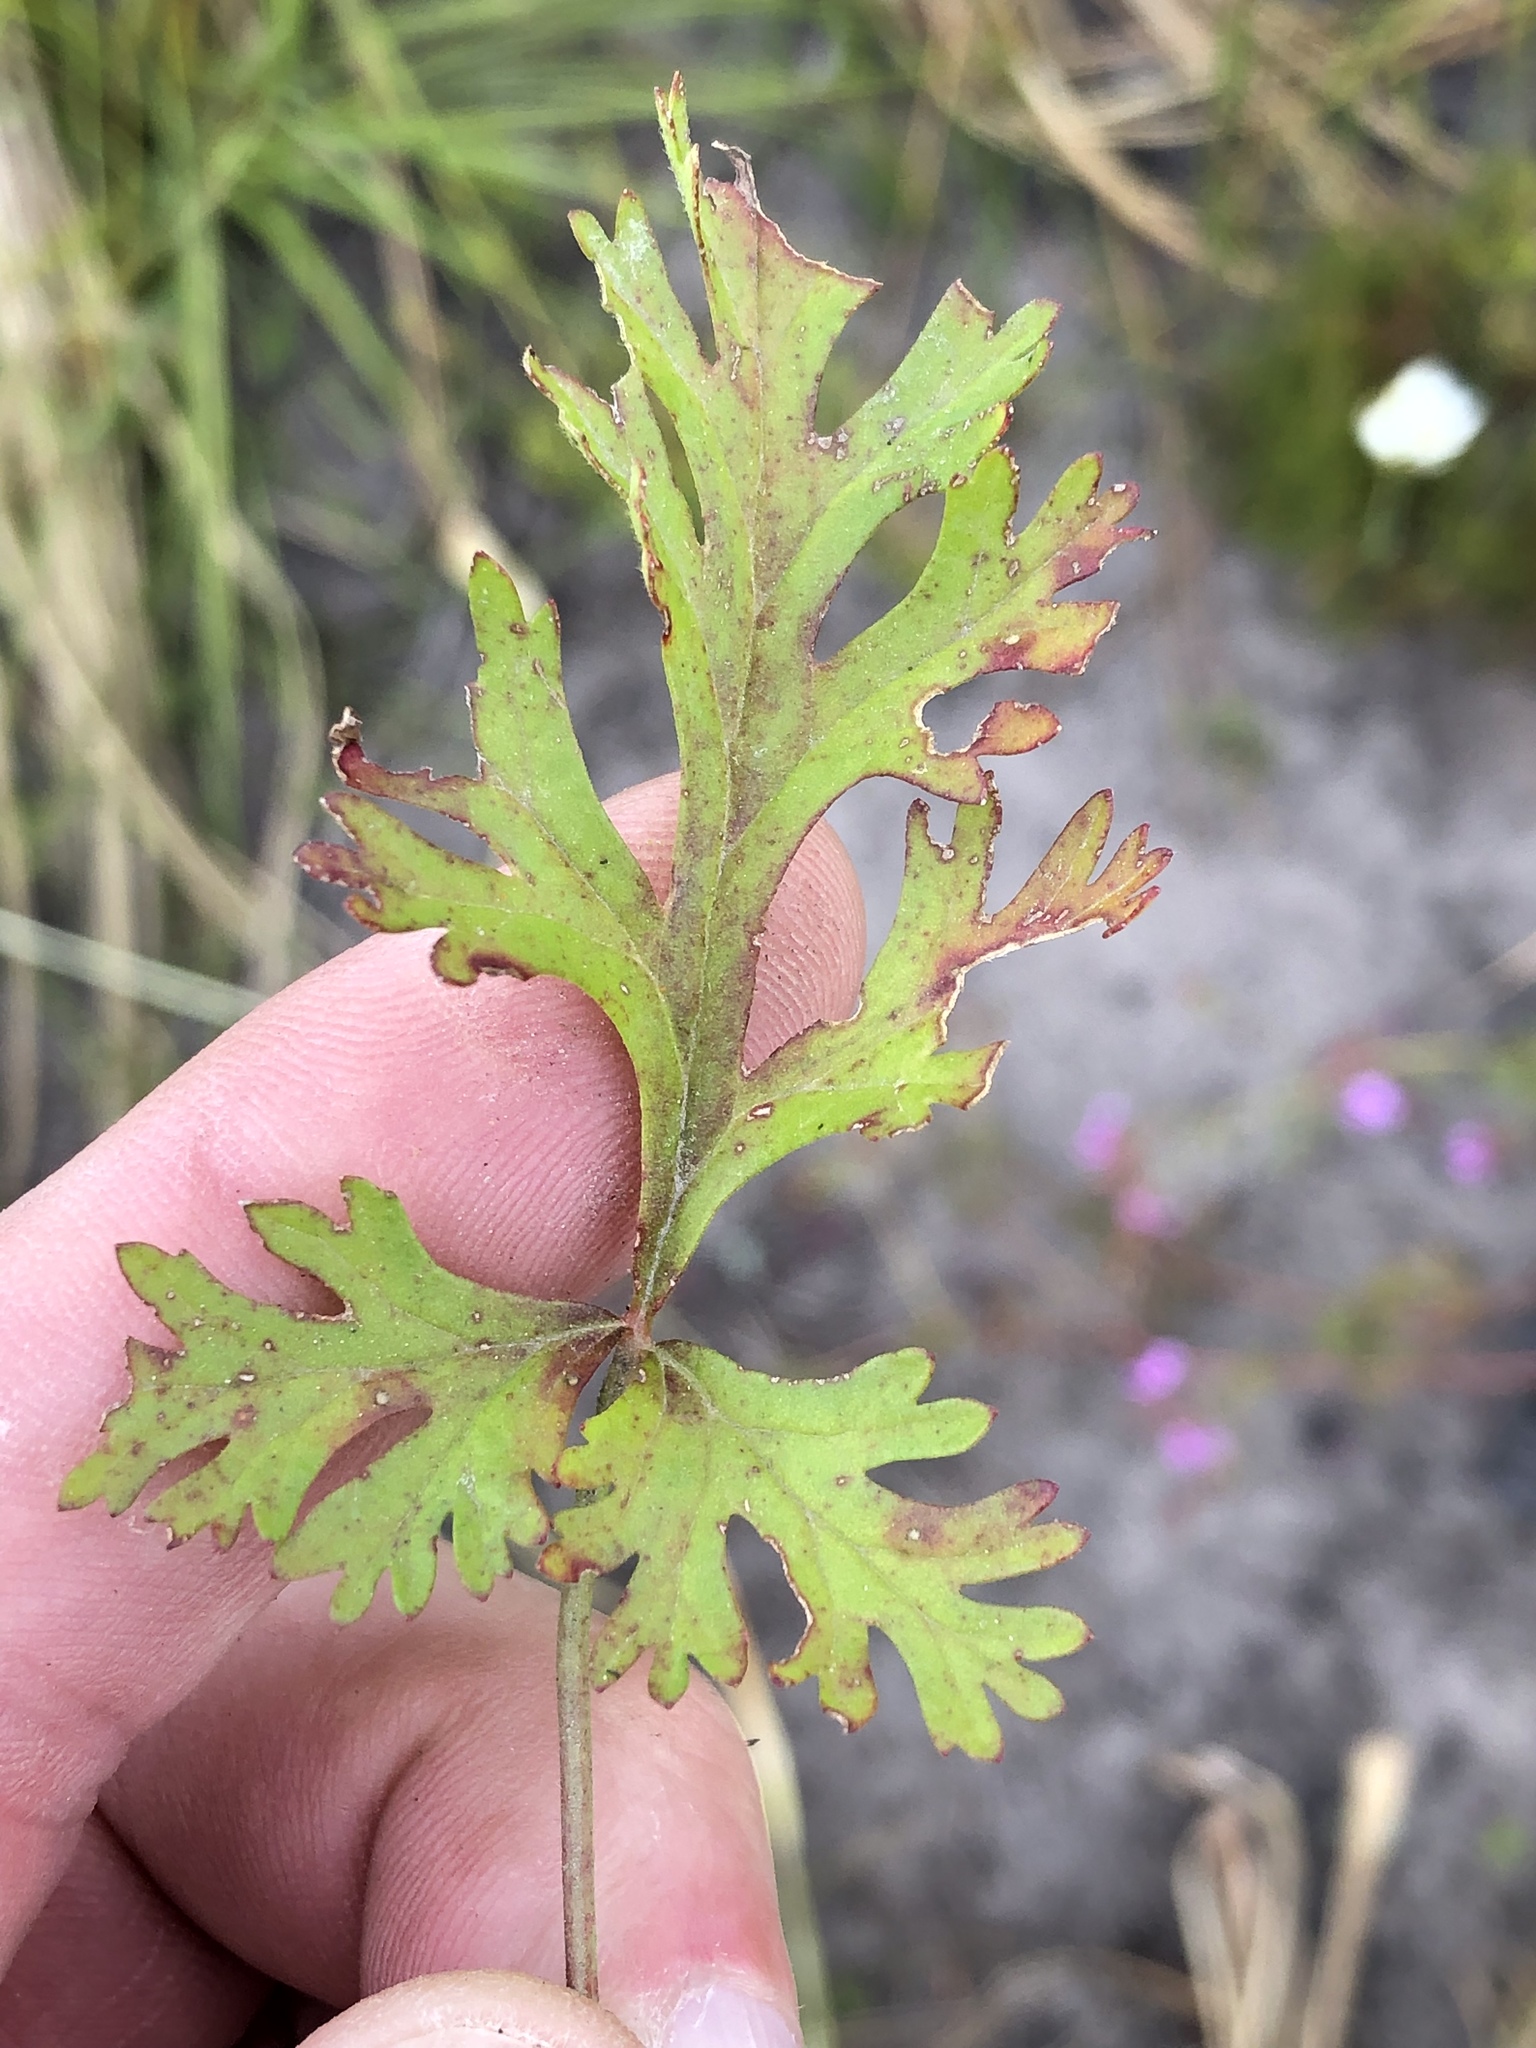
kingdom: Plantae
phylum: Tracheophyta
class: Magnoliopsida
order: Geraniales
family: Geraniaceae
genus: Pelargonium
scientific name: Pelargonium multicaule
